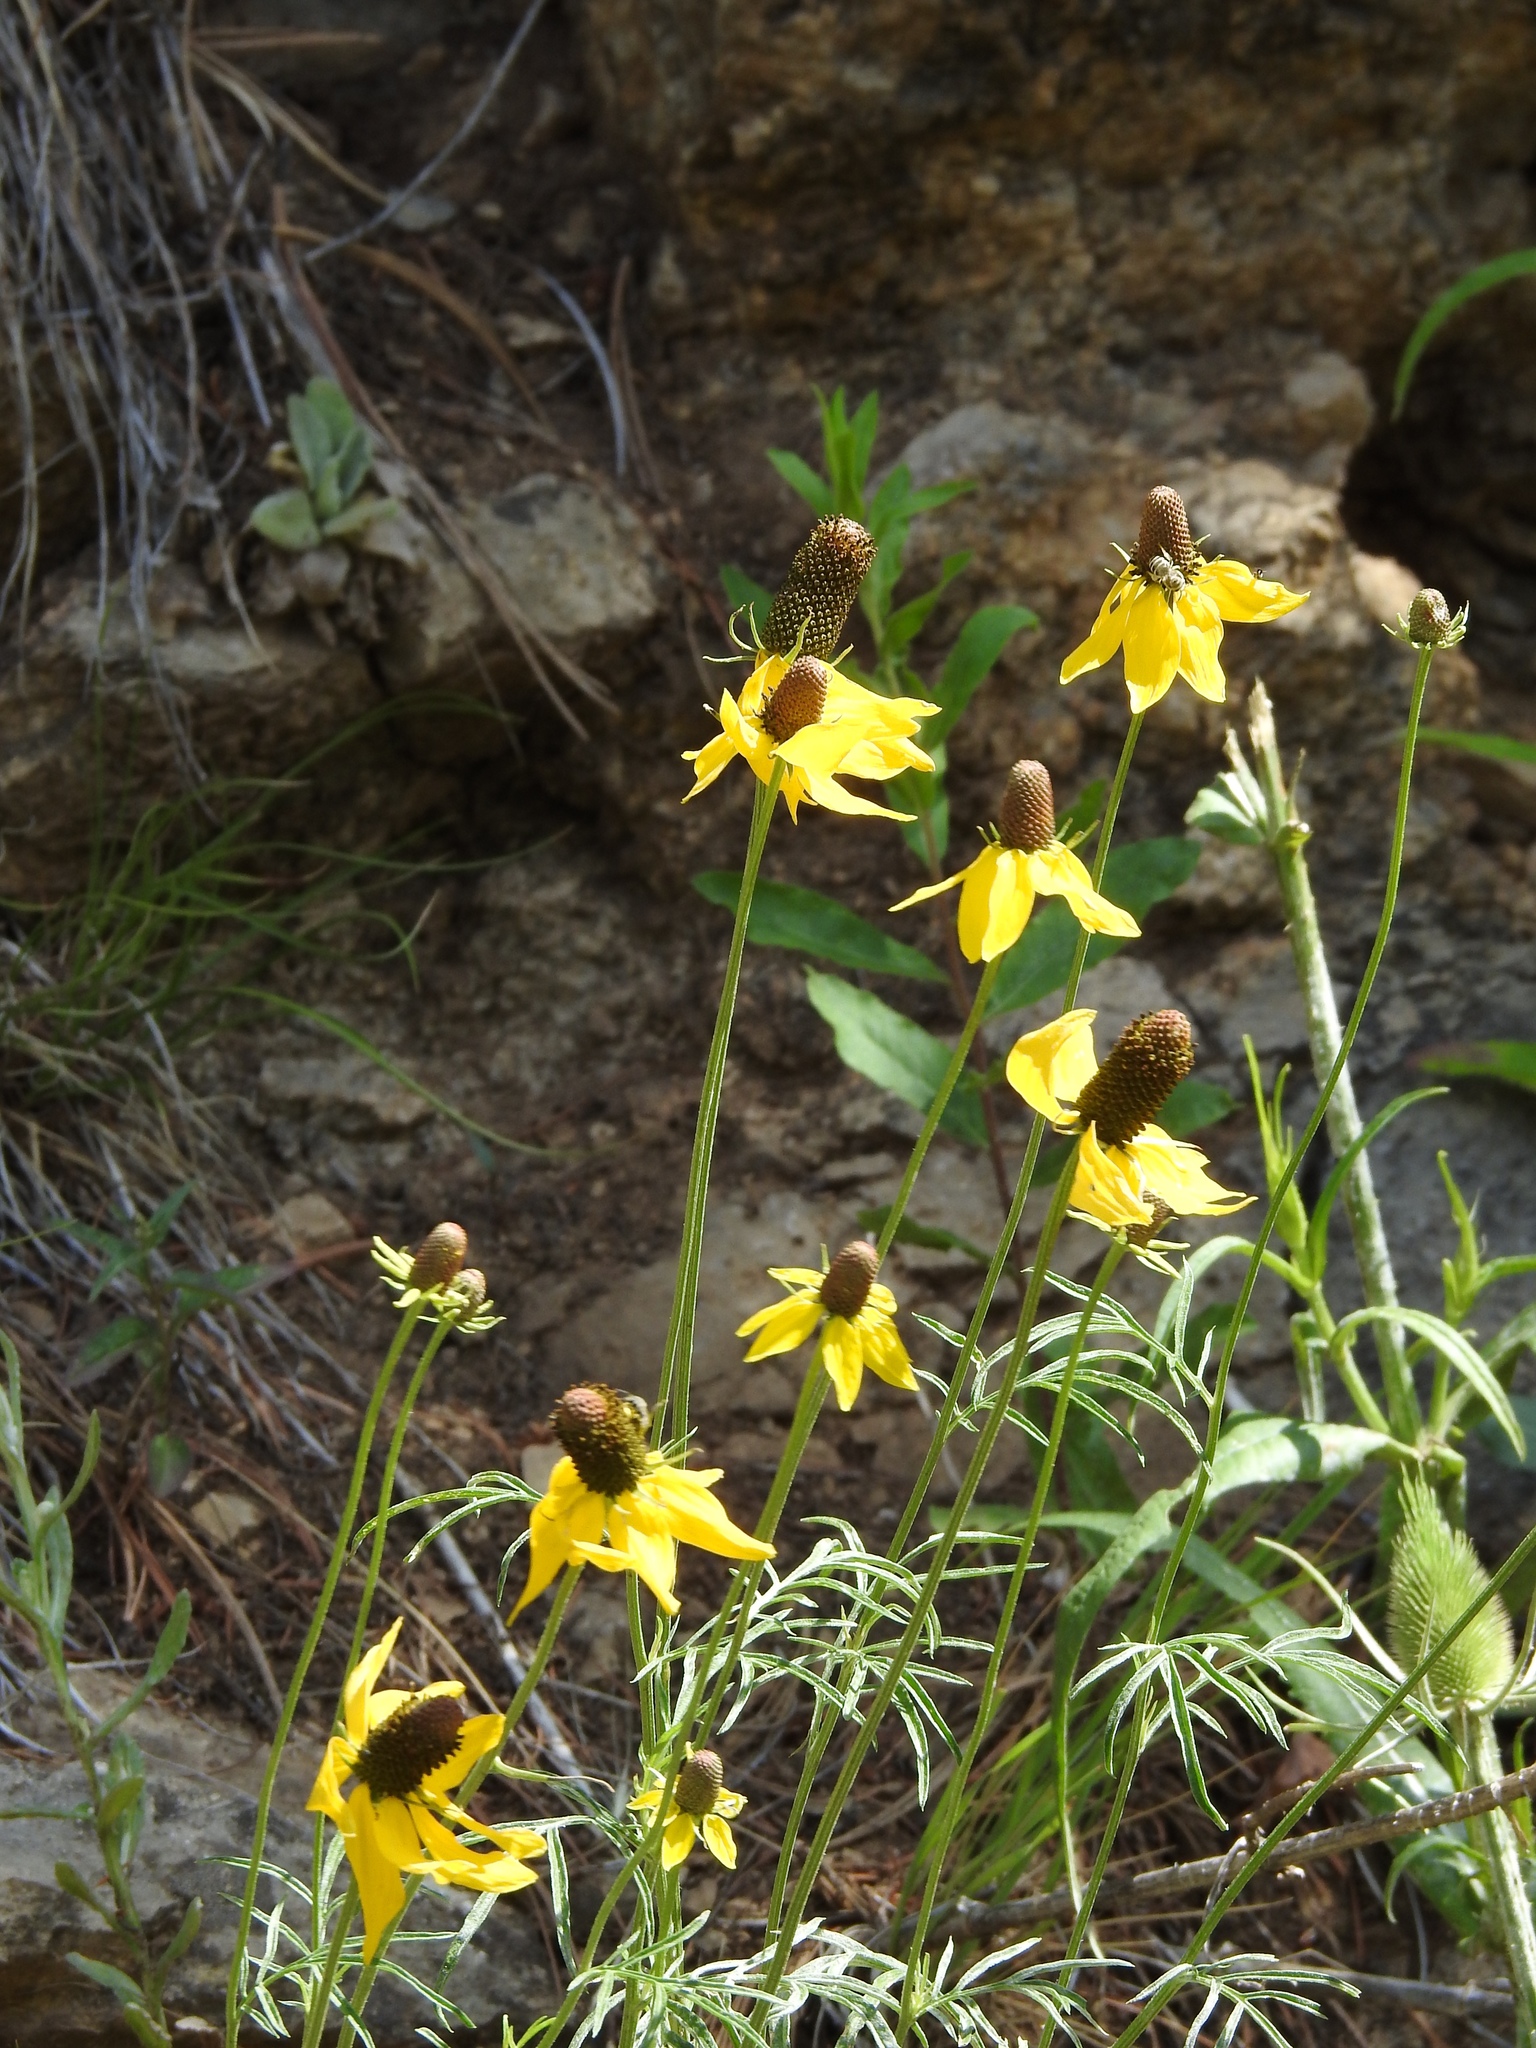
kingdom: Plantae
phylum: Tracheophyta
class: Magnoliopsida
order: Asterales
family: Asteraceae
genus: Ratibida
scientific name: Ratibida columnifera
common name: Prairie coneflower
